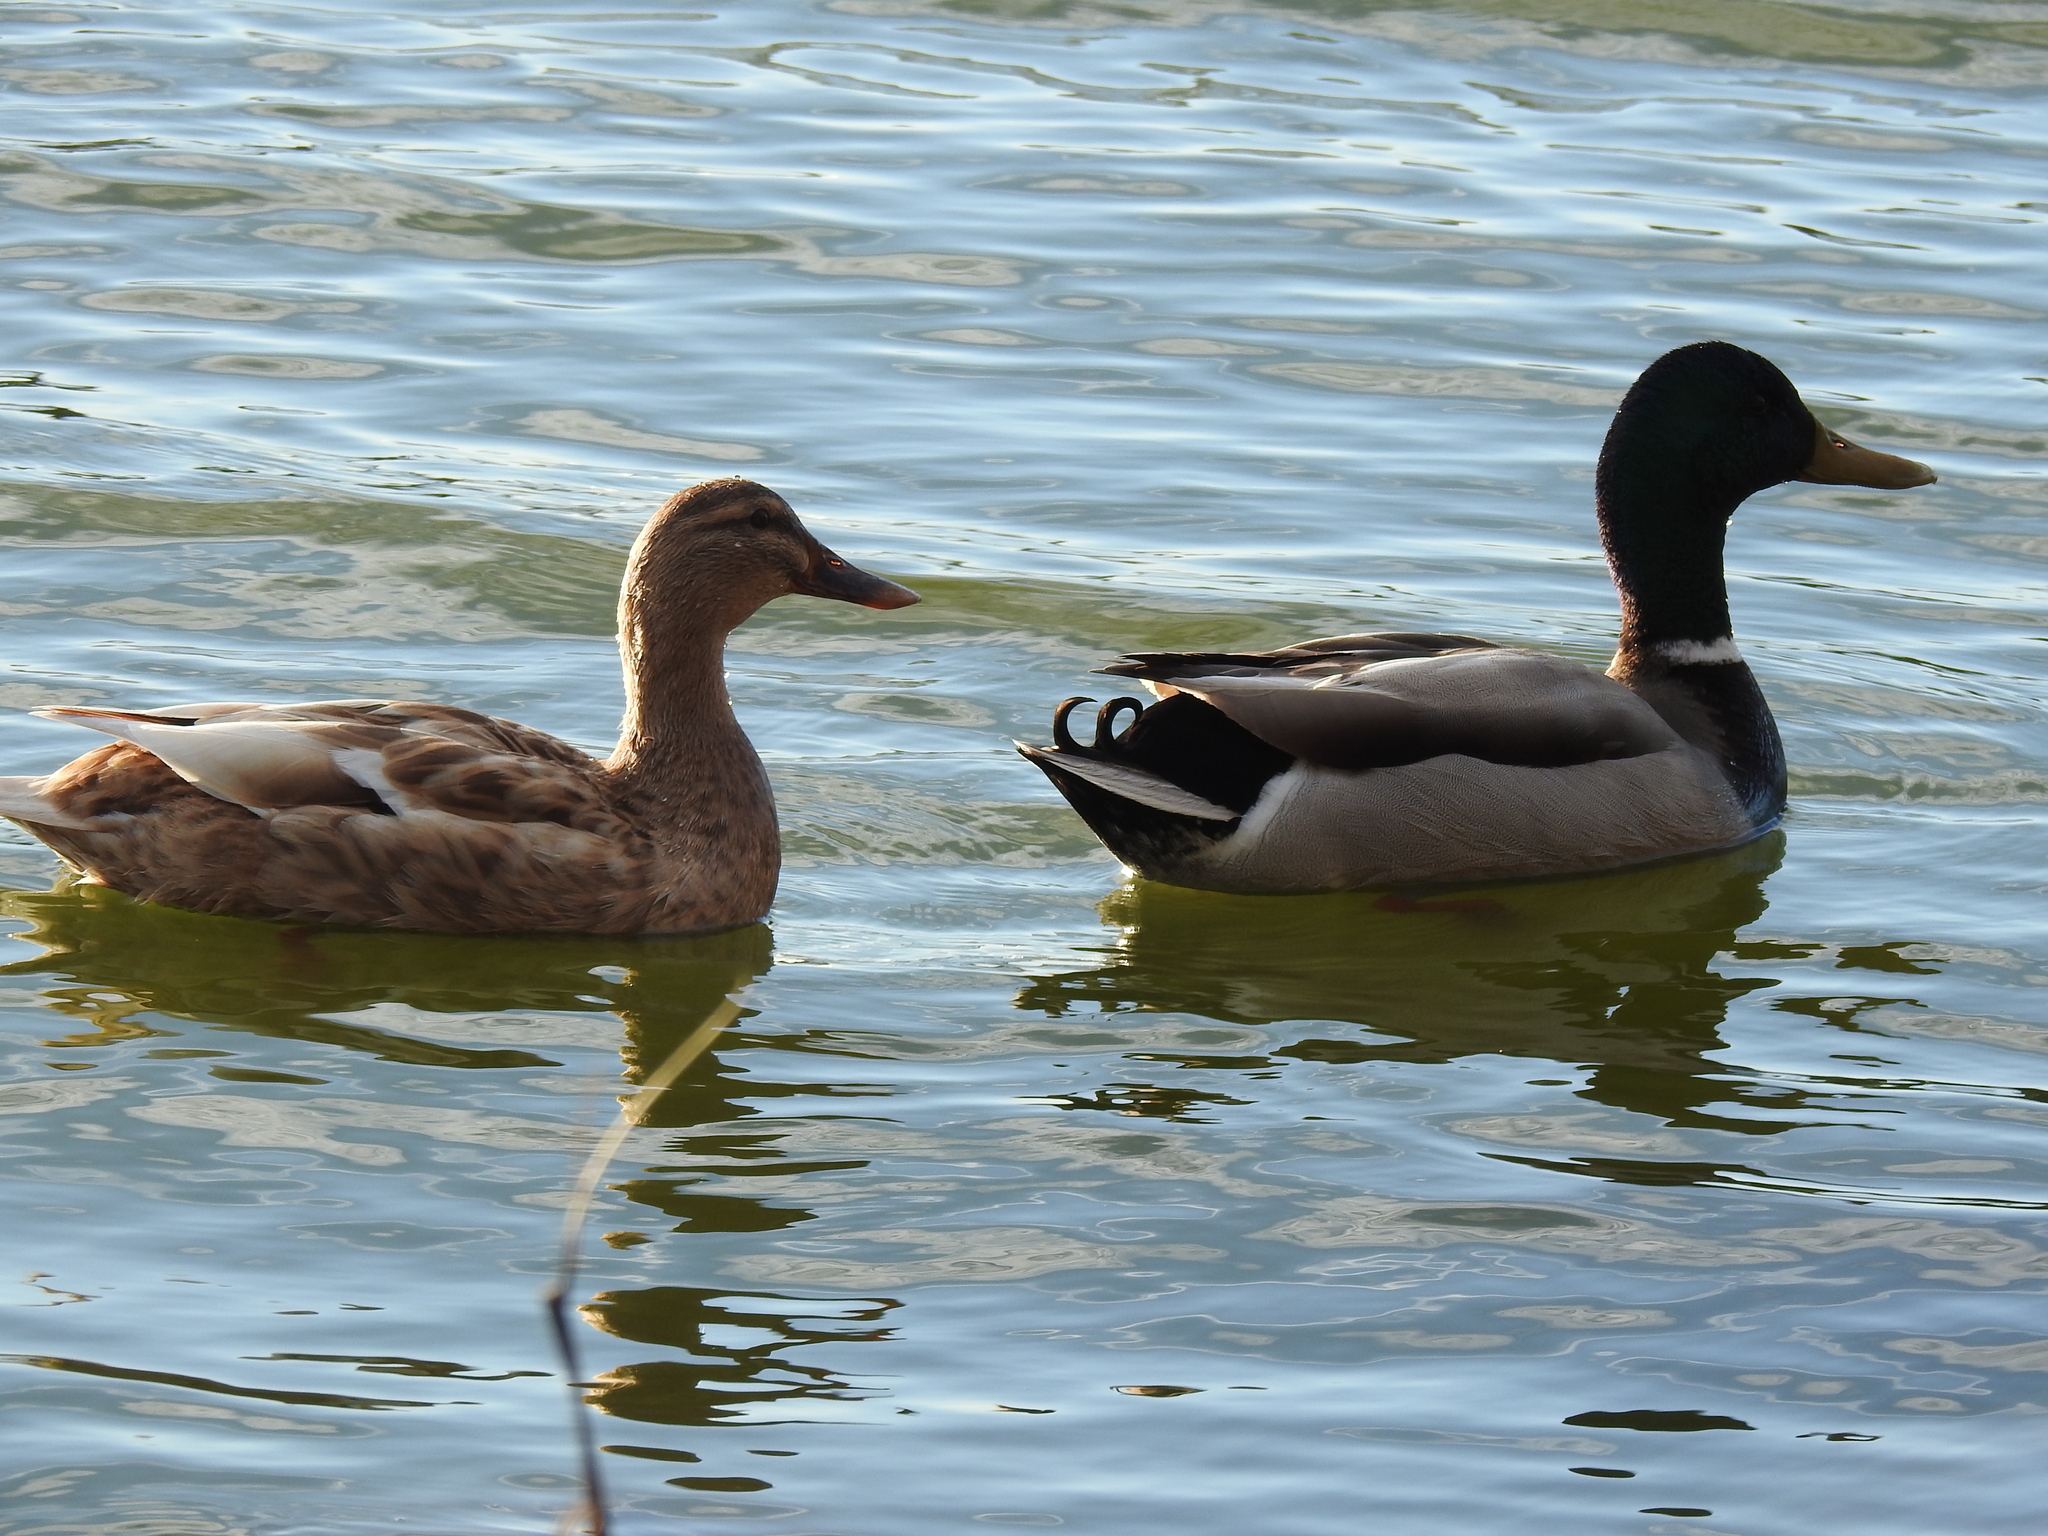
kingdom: Animalia
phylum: Chordata
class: Aves
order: Anseriformes
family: Anatidae
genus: Anas
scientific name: Anas platyrhynchos
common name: Mallard
